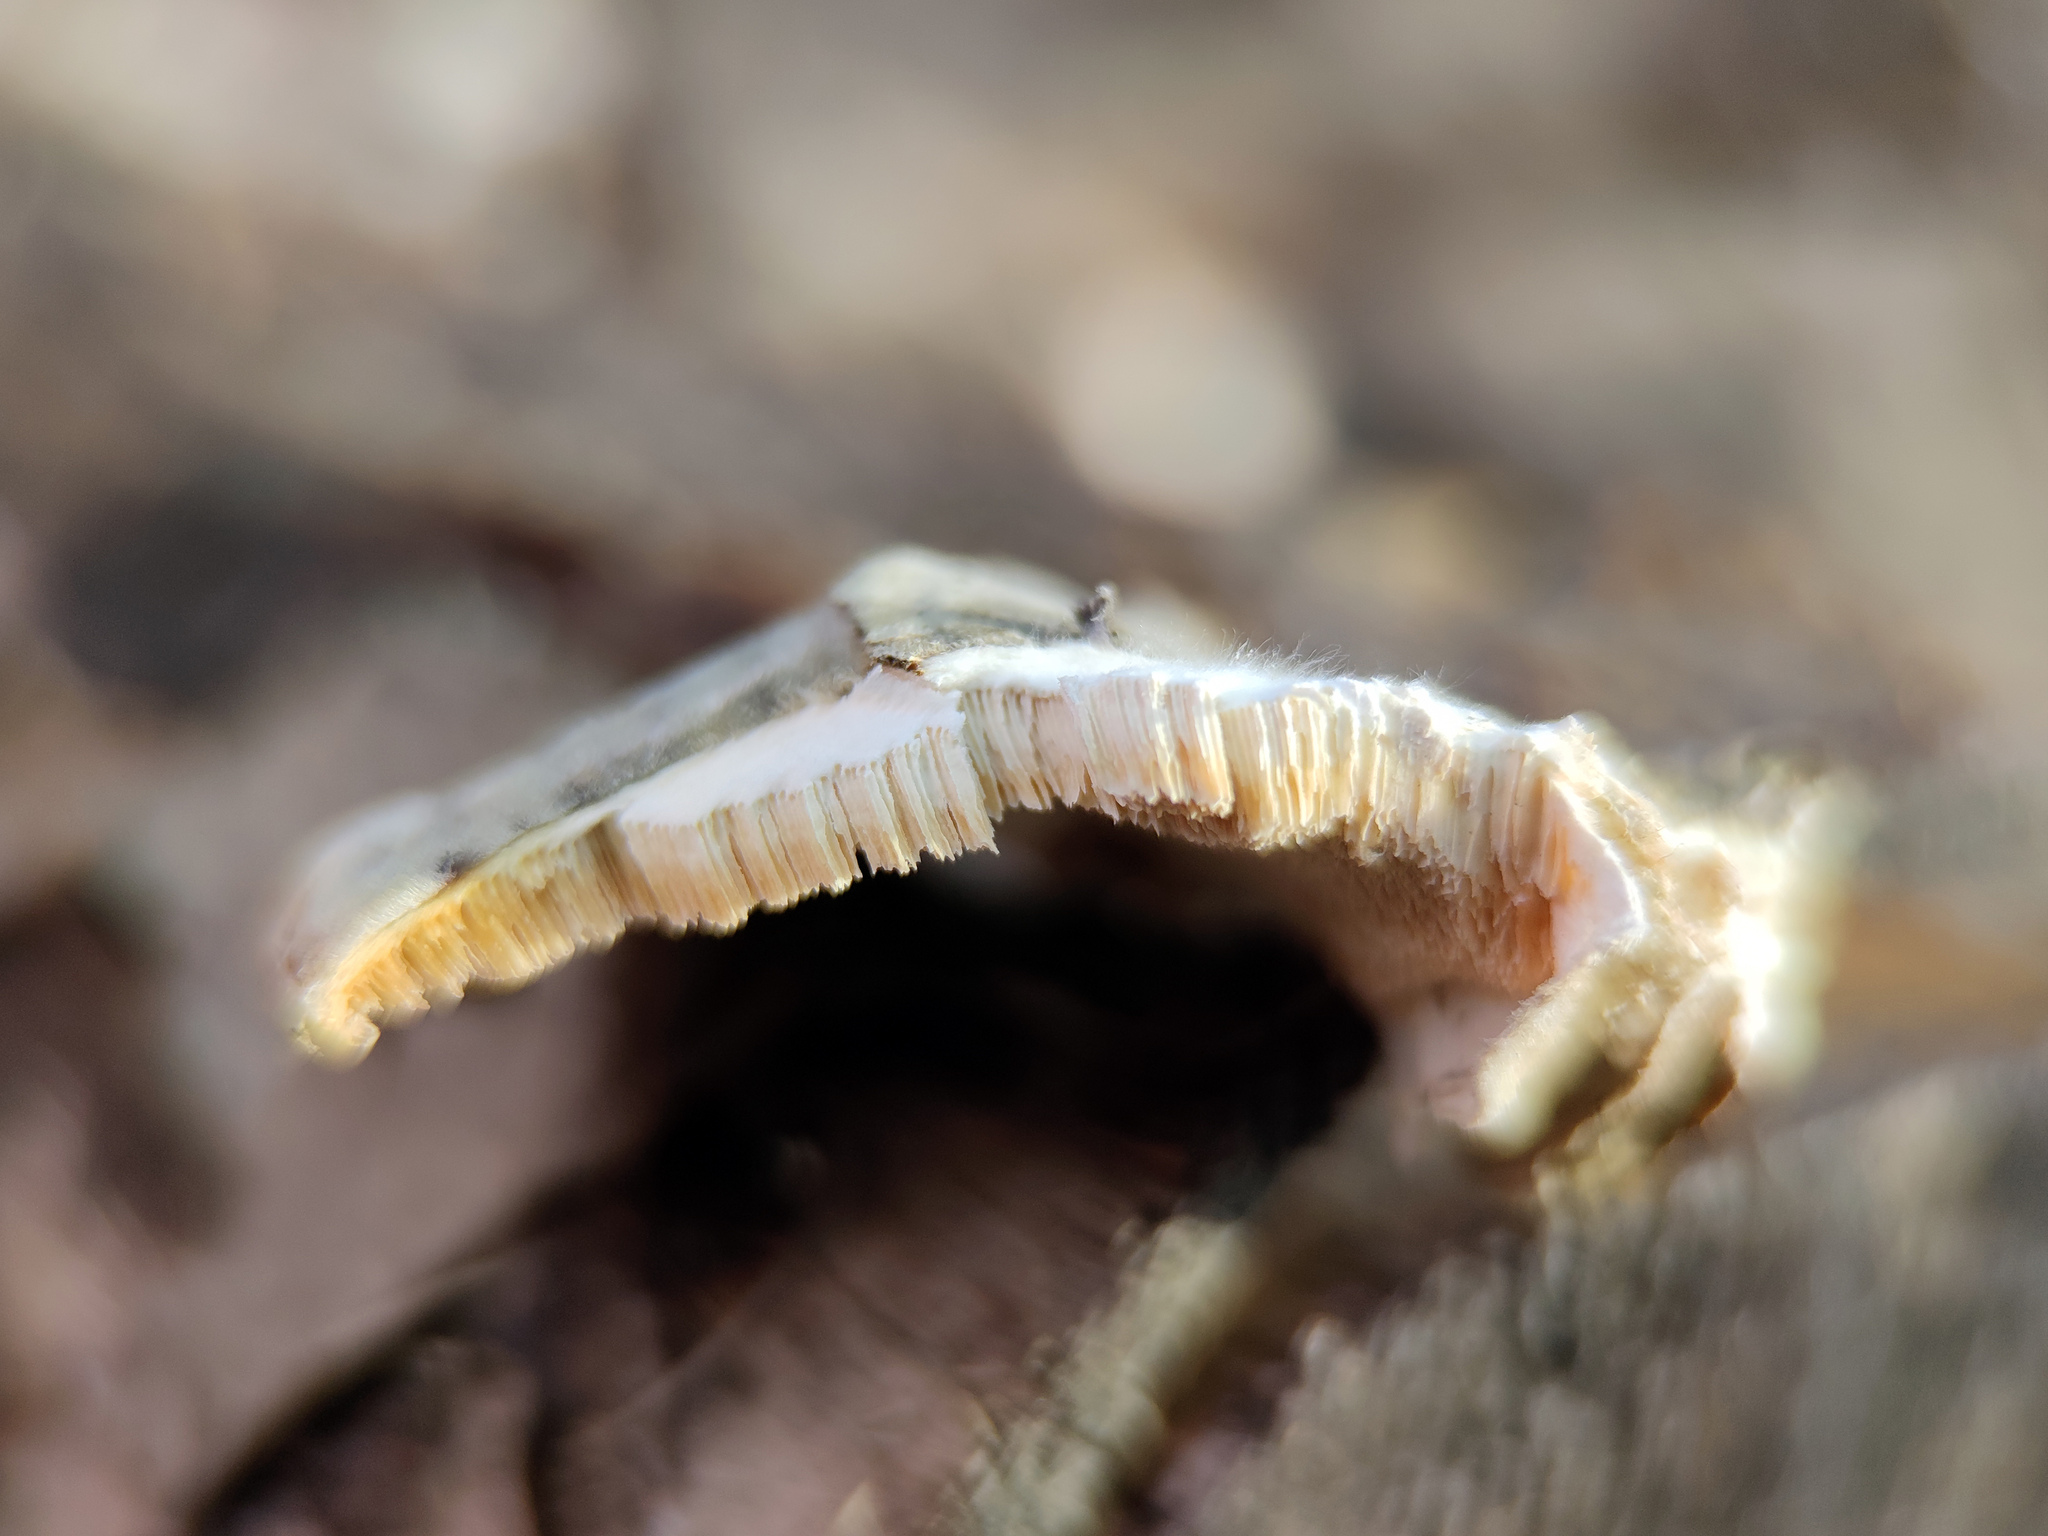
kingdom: Fungi
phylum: Basidiomycota
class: Agaricomycetes
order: Polyporales
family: Polyporaceae
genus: Trametes
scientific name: Trametes versicolor
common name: Turkeytail
